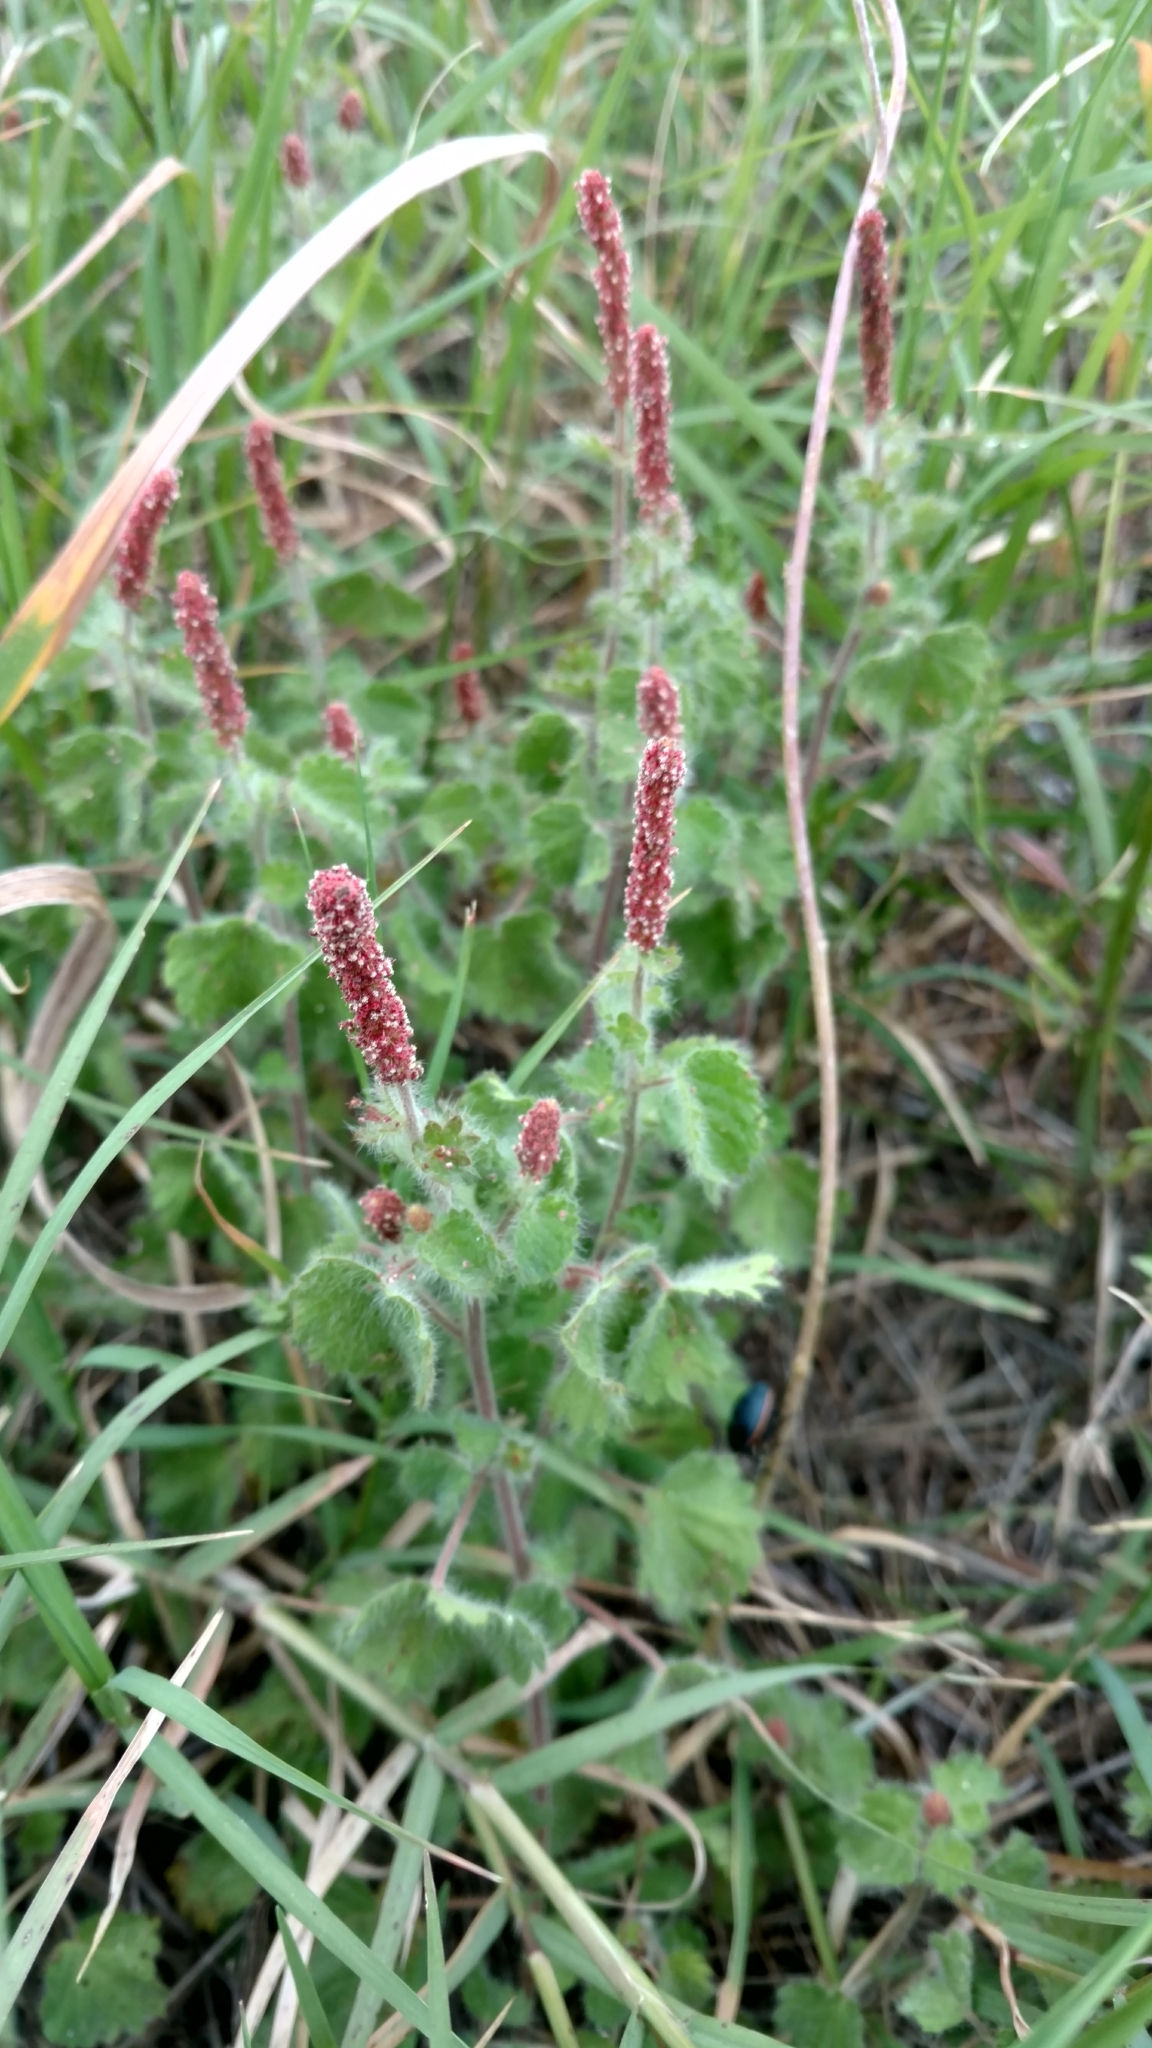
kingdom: Plantae
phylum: Tracheophyta
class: Magnoliopsida
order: Malpighiales
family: Euphorbiaceae
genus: Acalypha
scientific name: Acalypha monostachya
